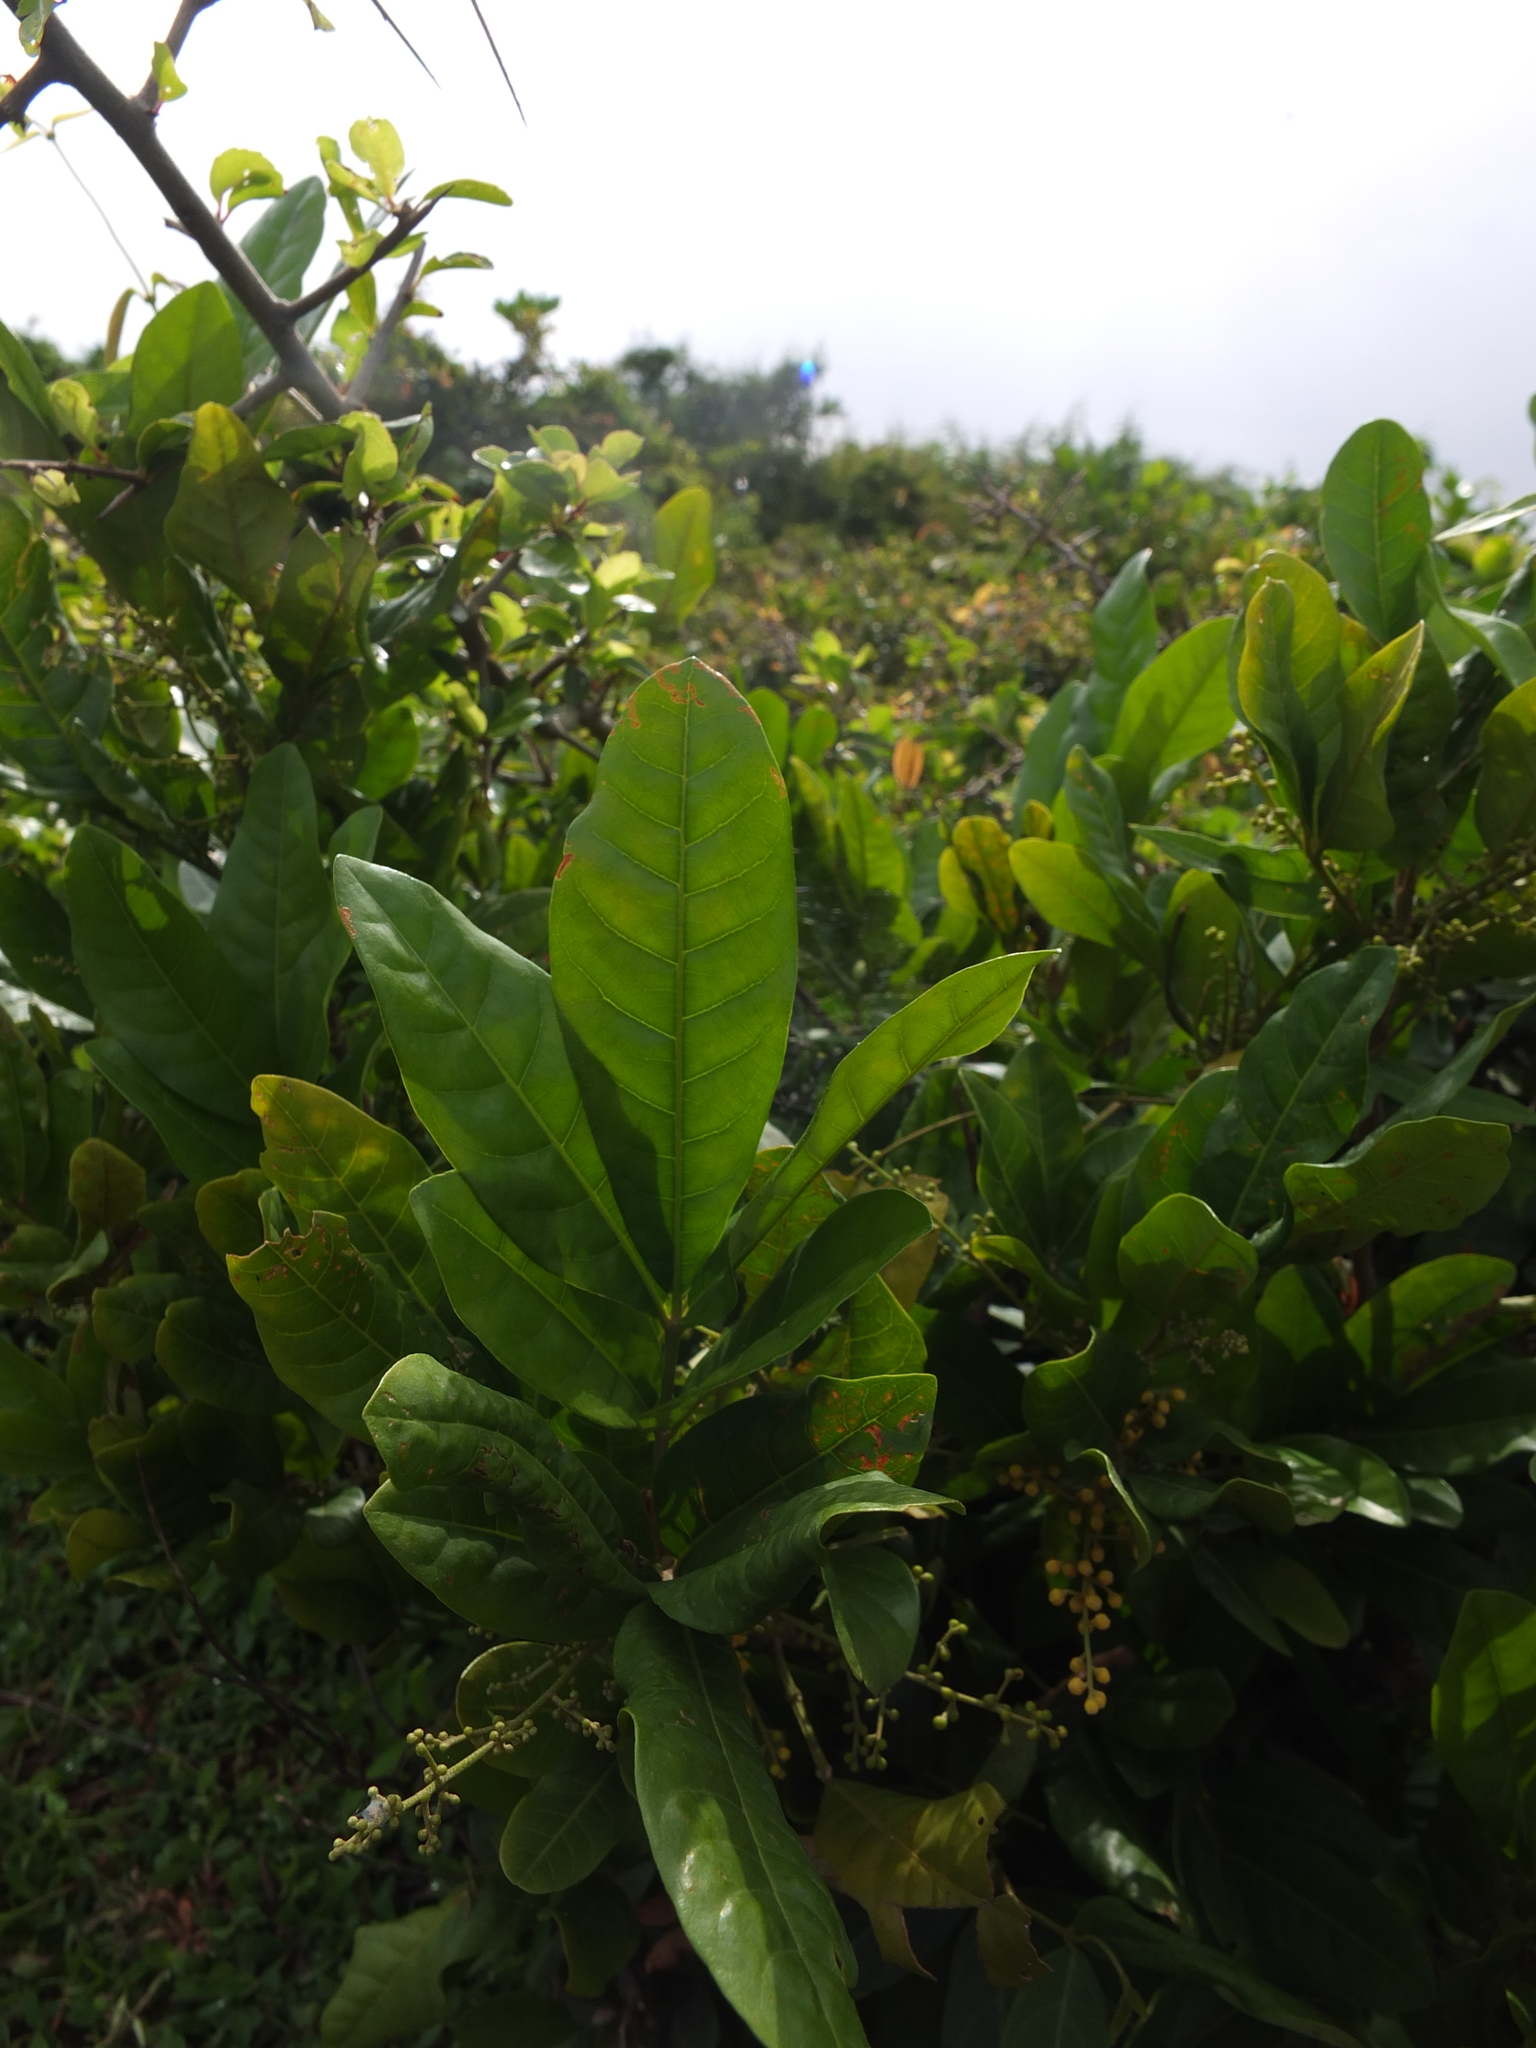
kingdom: Plantae
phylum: Tracheophyta
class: Magnoliopsida
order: Sapindales
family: Meliaceae
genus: Aglaia
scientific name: Aglaia elaeagnoidea
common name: Droopyleaf
